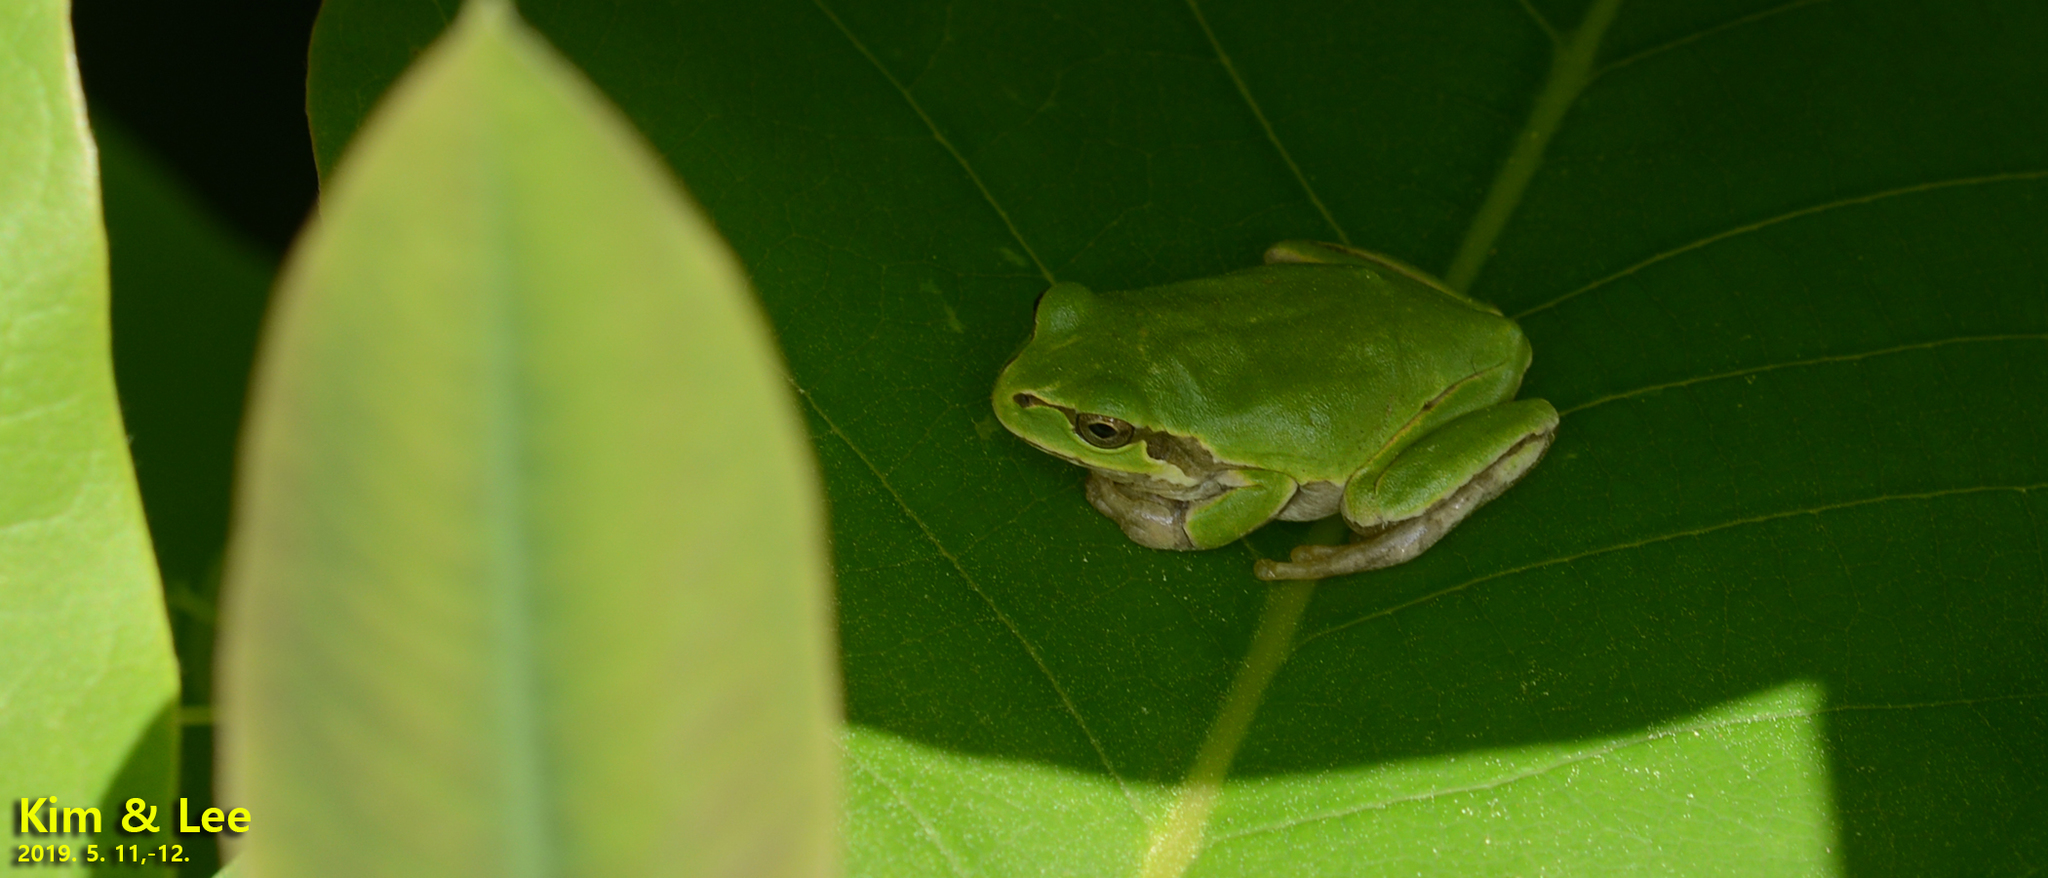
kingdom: Animalia
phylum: Chordata
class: Amphibia
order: Anura
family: Hylidae
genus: Dryophytes
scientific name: Dryophytes japonicus
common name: Japanese treefrog
